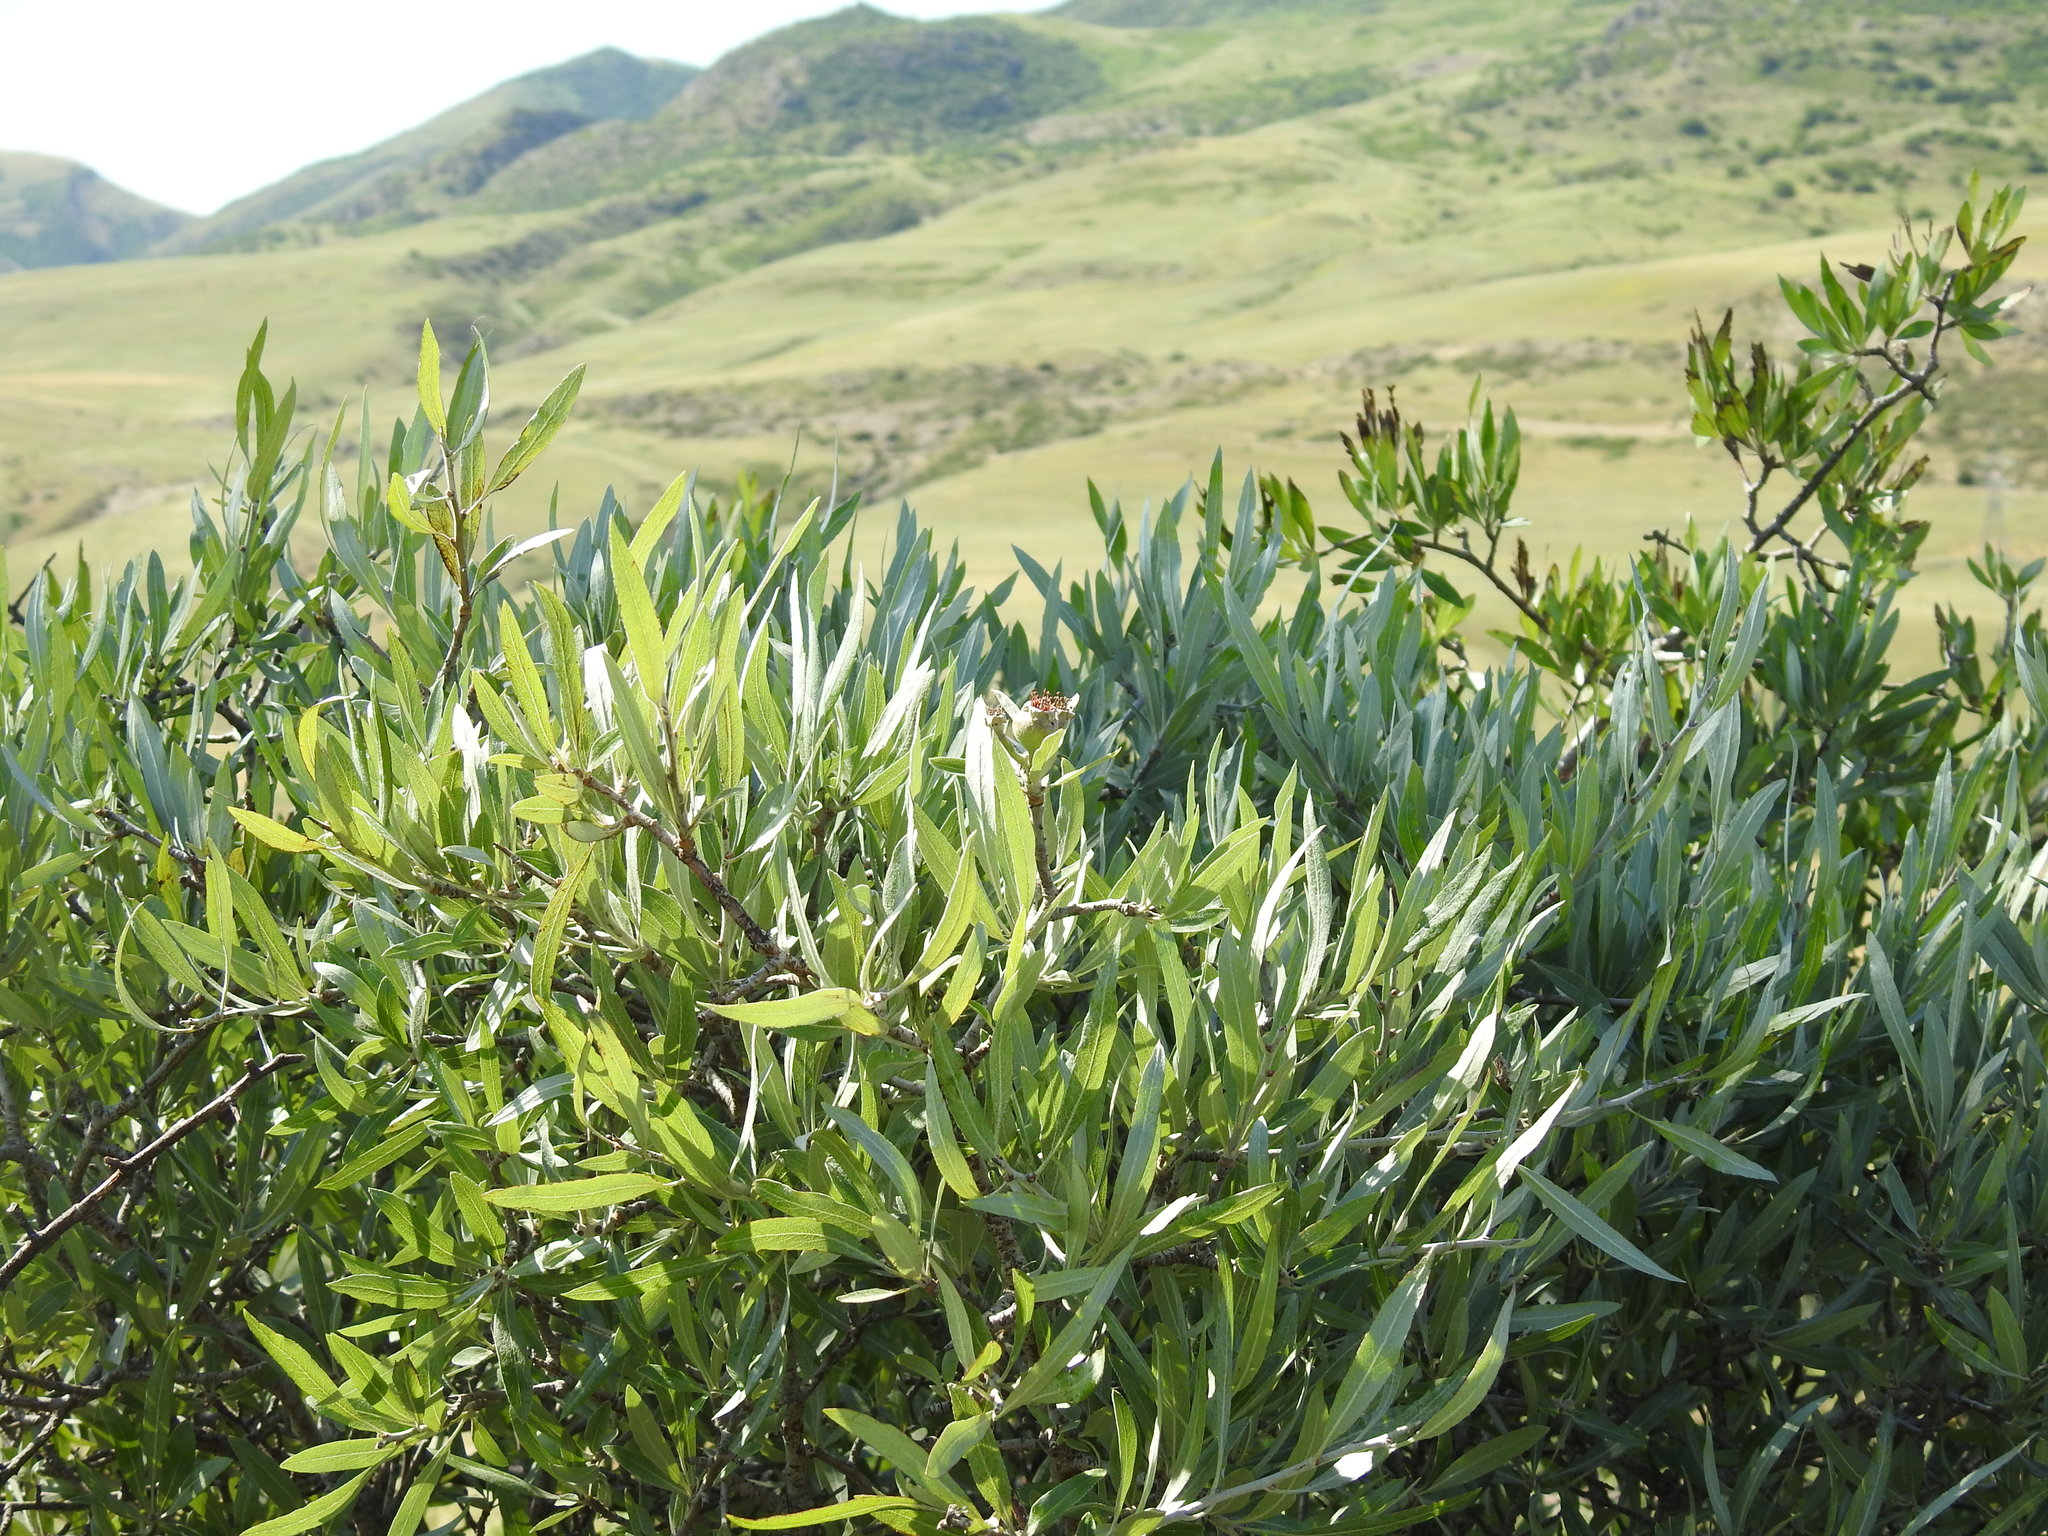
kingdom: Plantae
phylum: Tracheophyta
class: Magnoliopsida
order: Rosales
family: Rosaceae
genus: Pyrus
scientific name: Pyrus salicifolia
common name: Willow-leaved pear
